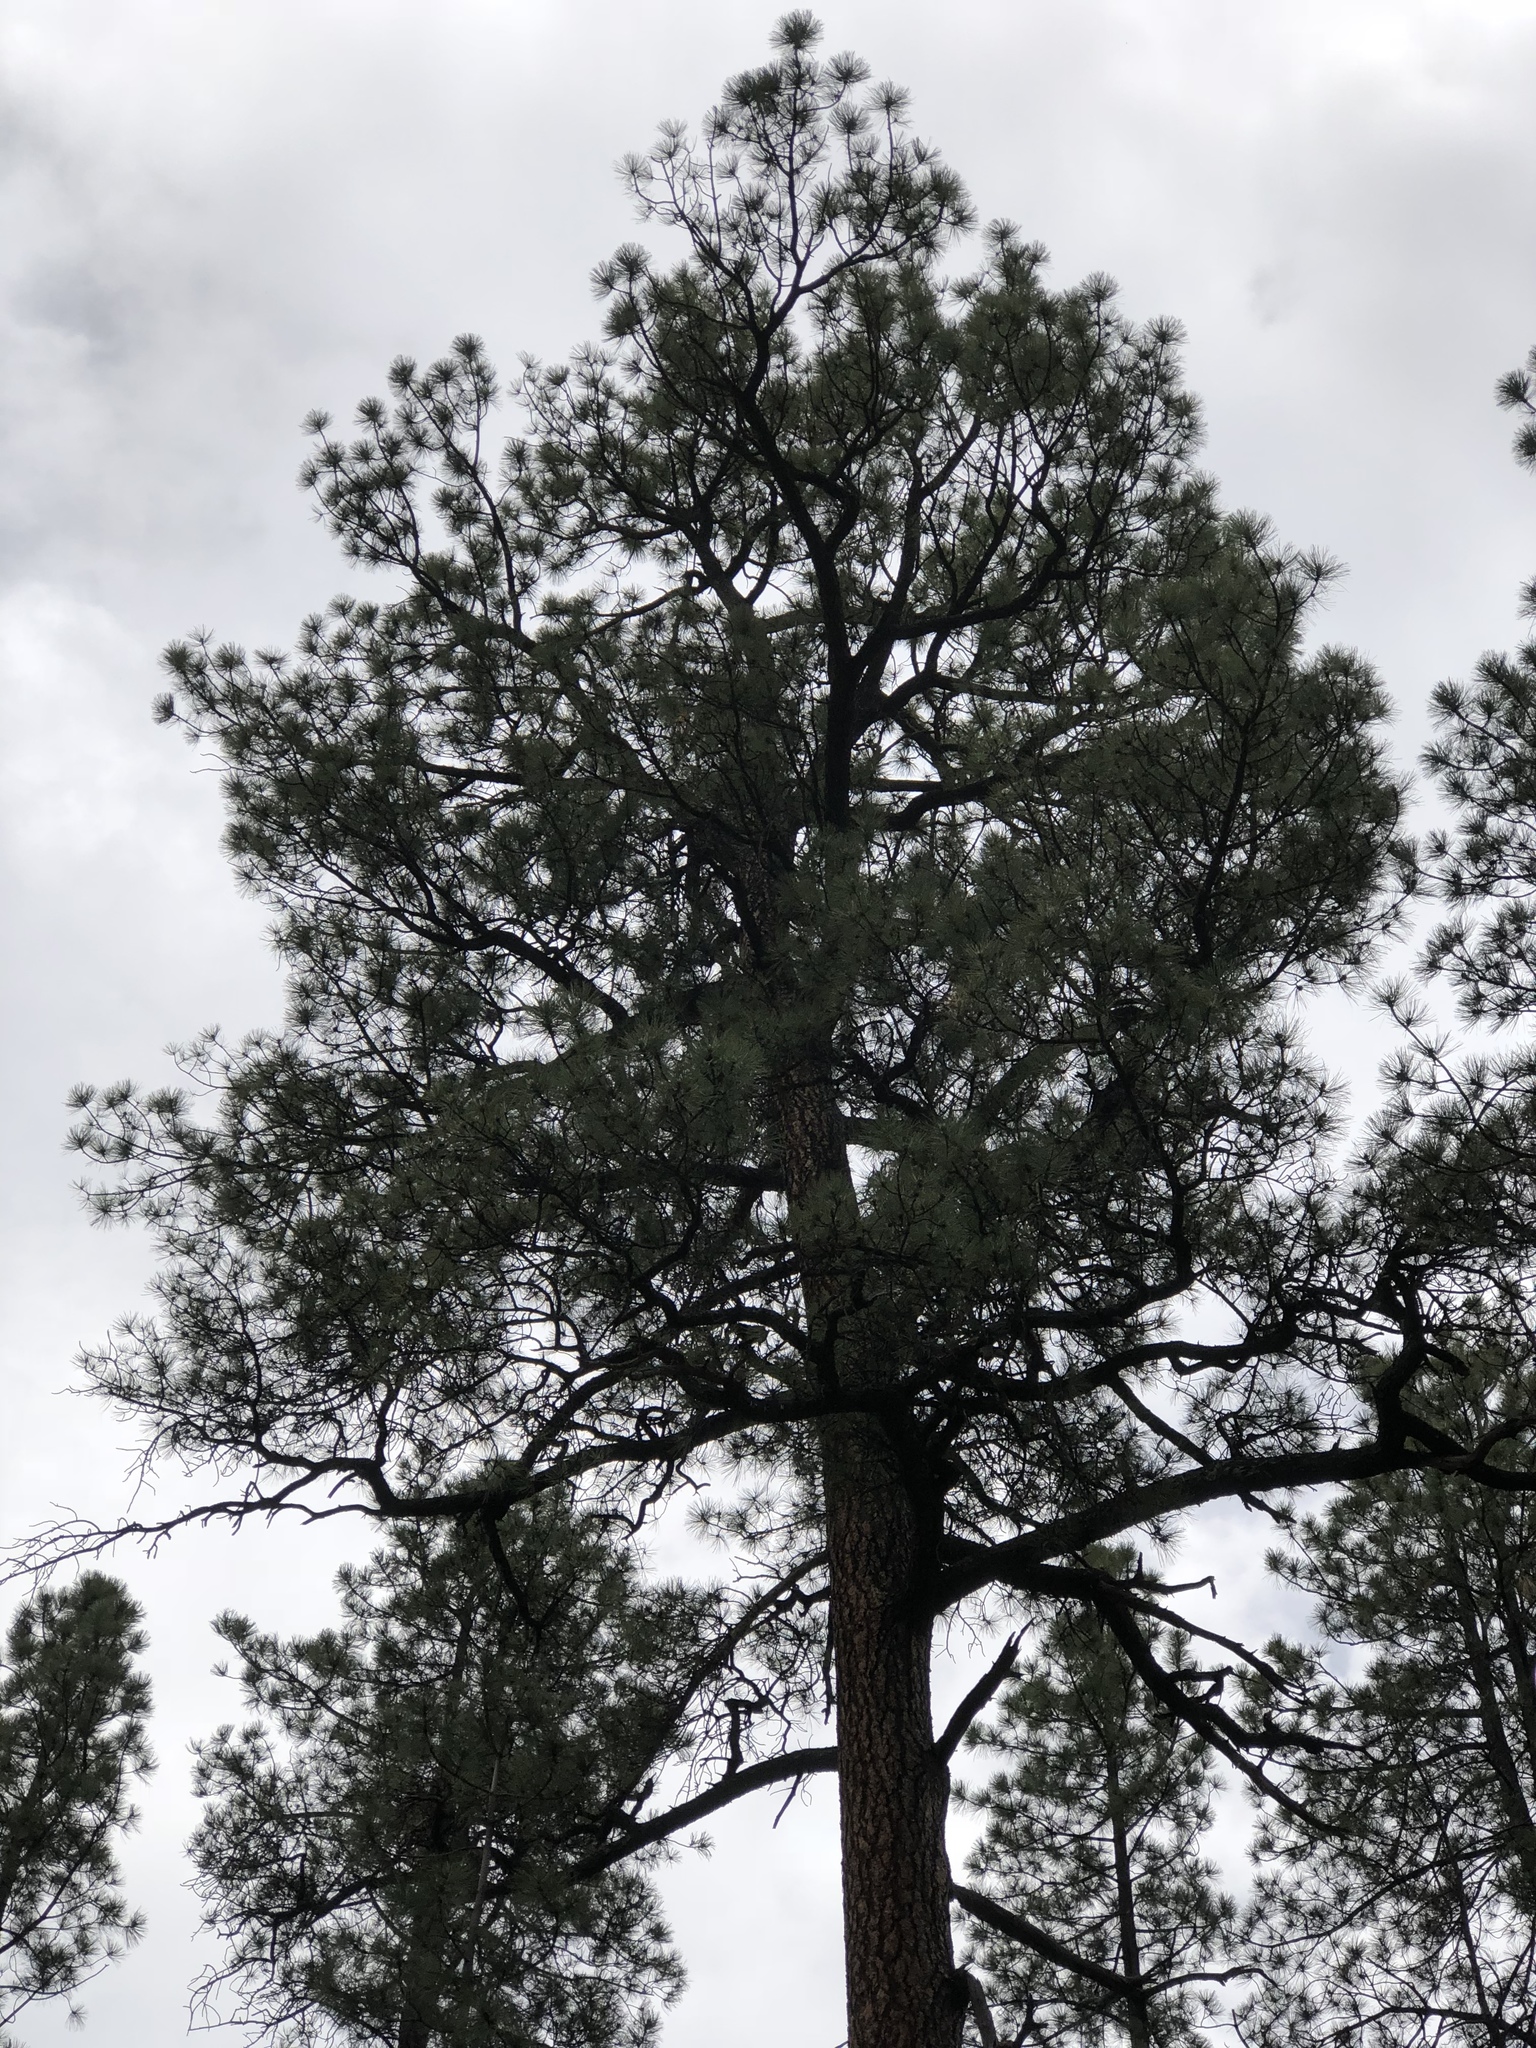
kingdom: Plantae
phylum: Tracheophyta
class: Pinopsida
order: Pinales
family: Pinaceae
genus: Pinus
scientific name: Pinus ponderosa
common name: Western yellow-pine
